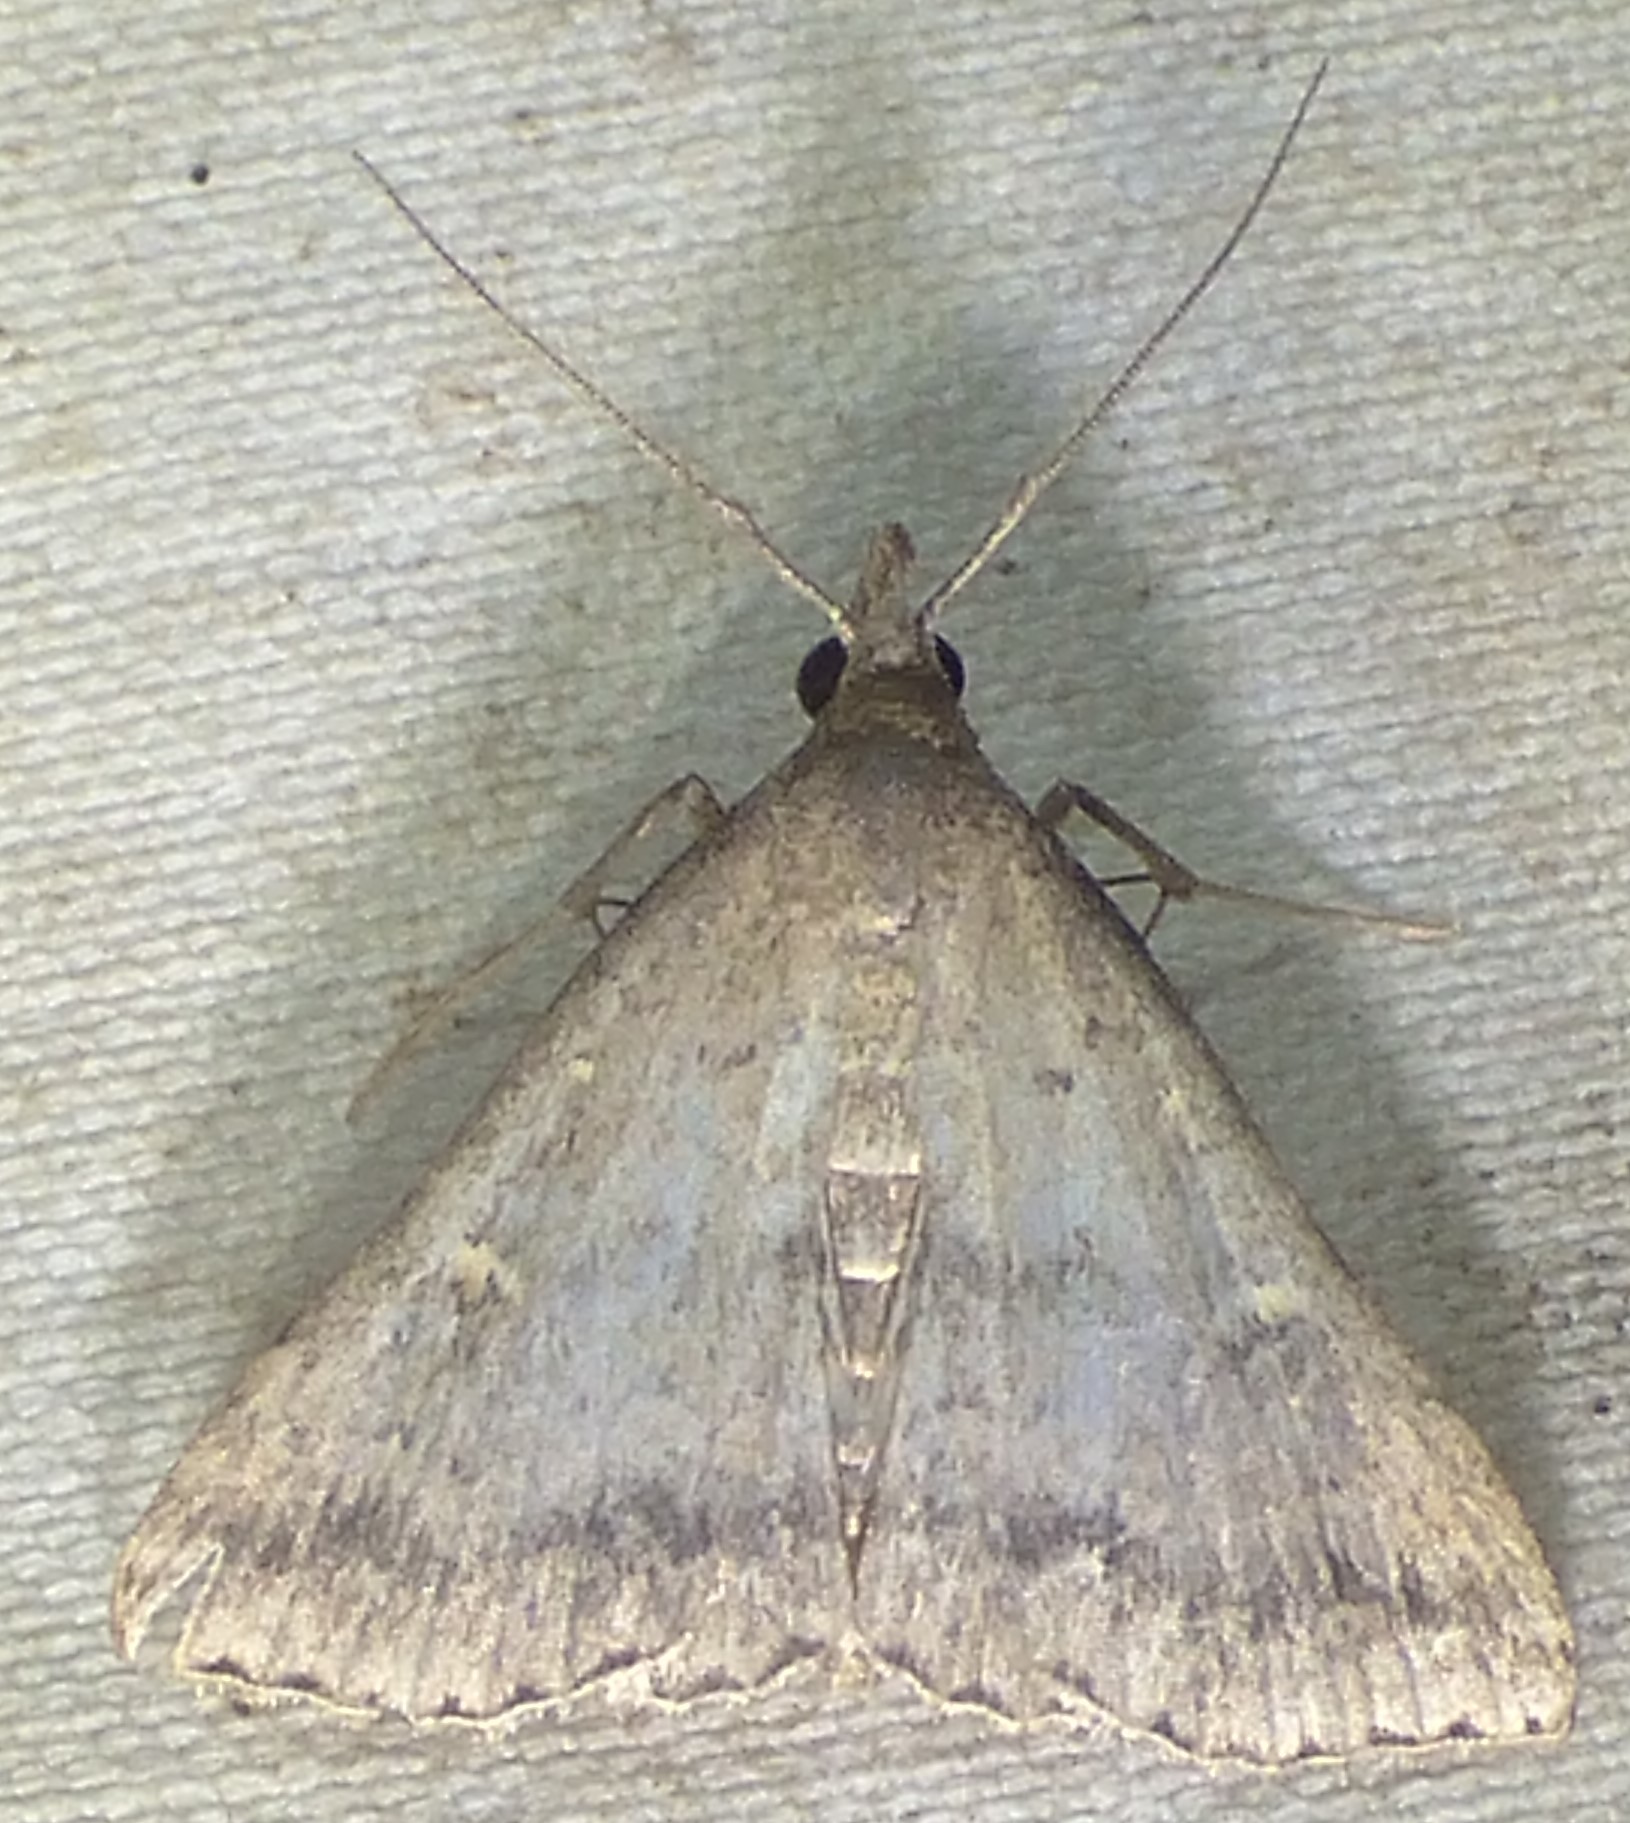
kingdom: Animalia
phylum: Arthropoda
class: Insecta
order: Lepidoptera
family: Erebidae
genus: Tetanolita
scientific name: Tetanolita floridana
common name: Florida tetanolita moth
